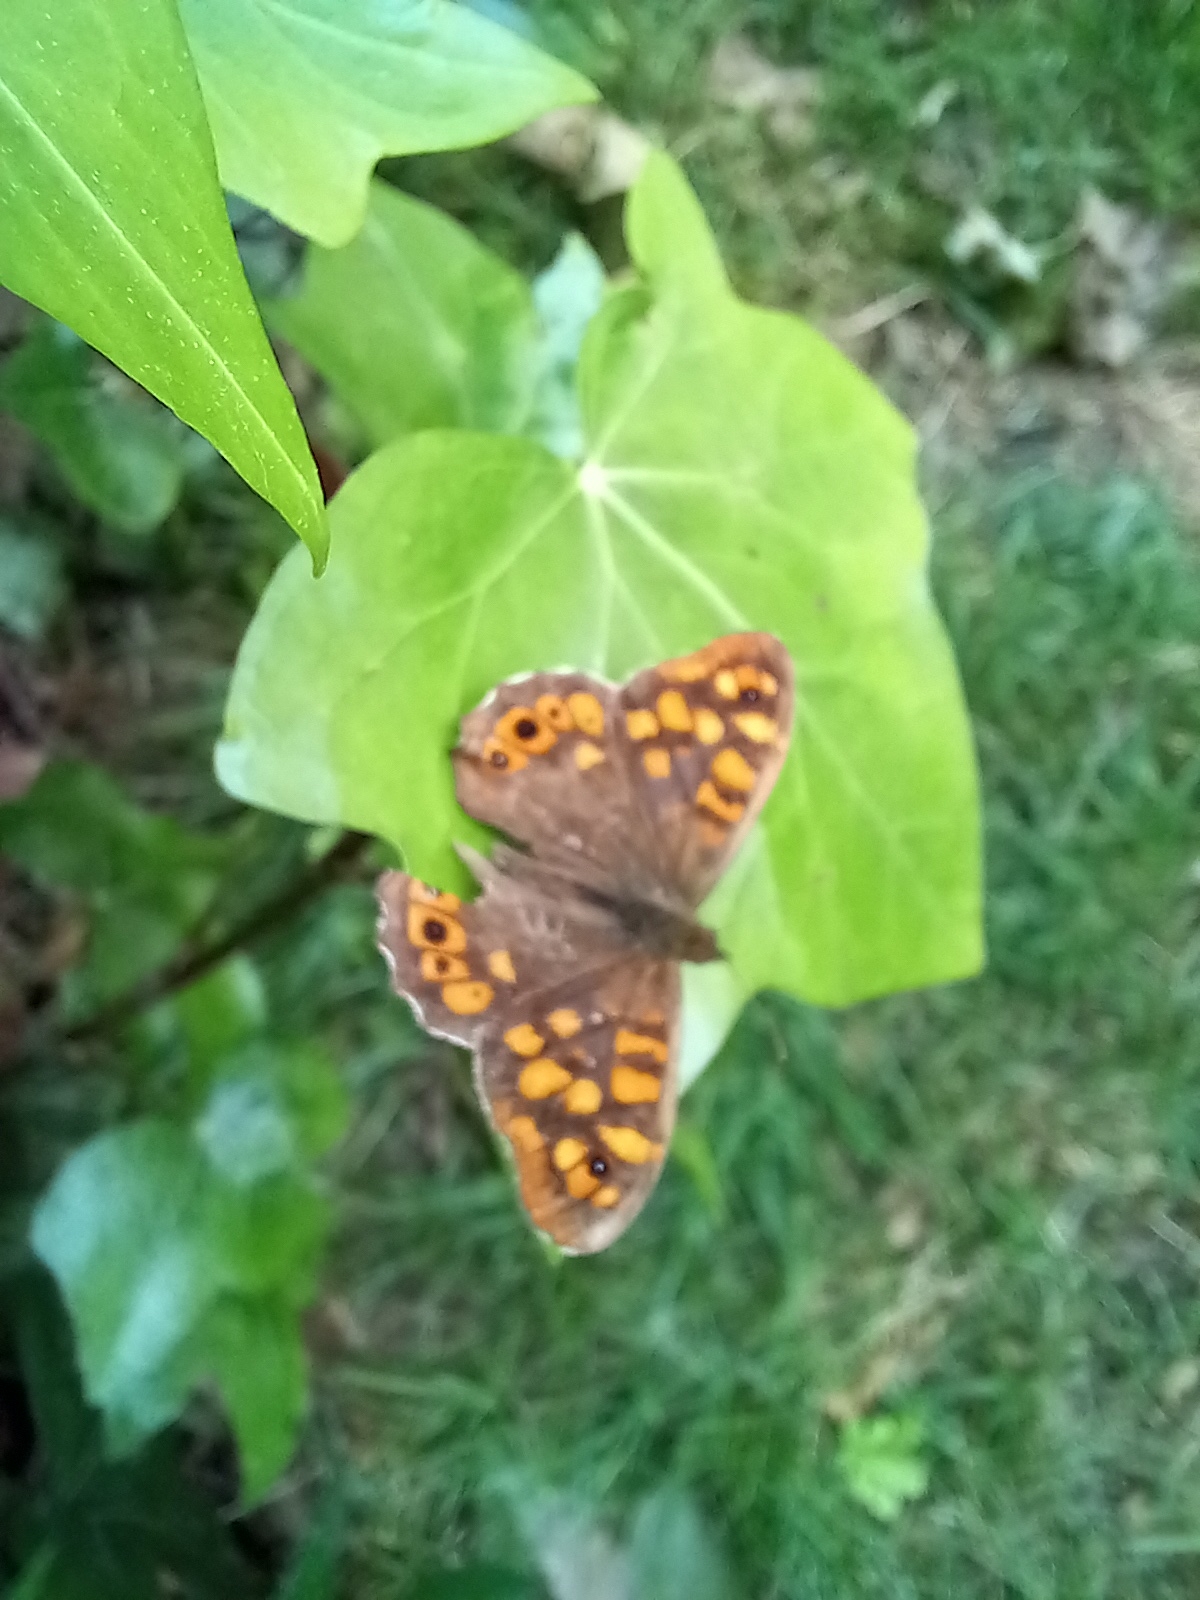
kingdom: Animalia
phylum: Arthropoda
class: Insecta
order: Lepidoptera
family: Nymphalidae
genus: Pararge
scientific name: Pararge aegeria
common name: Speckled wood
